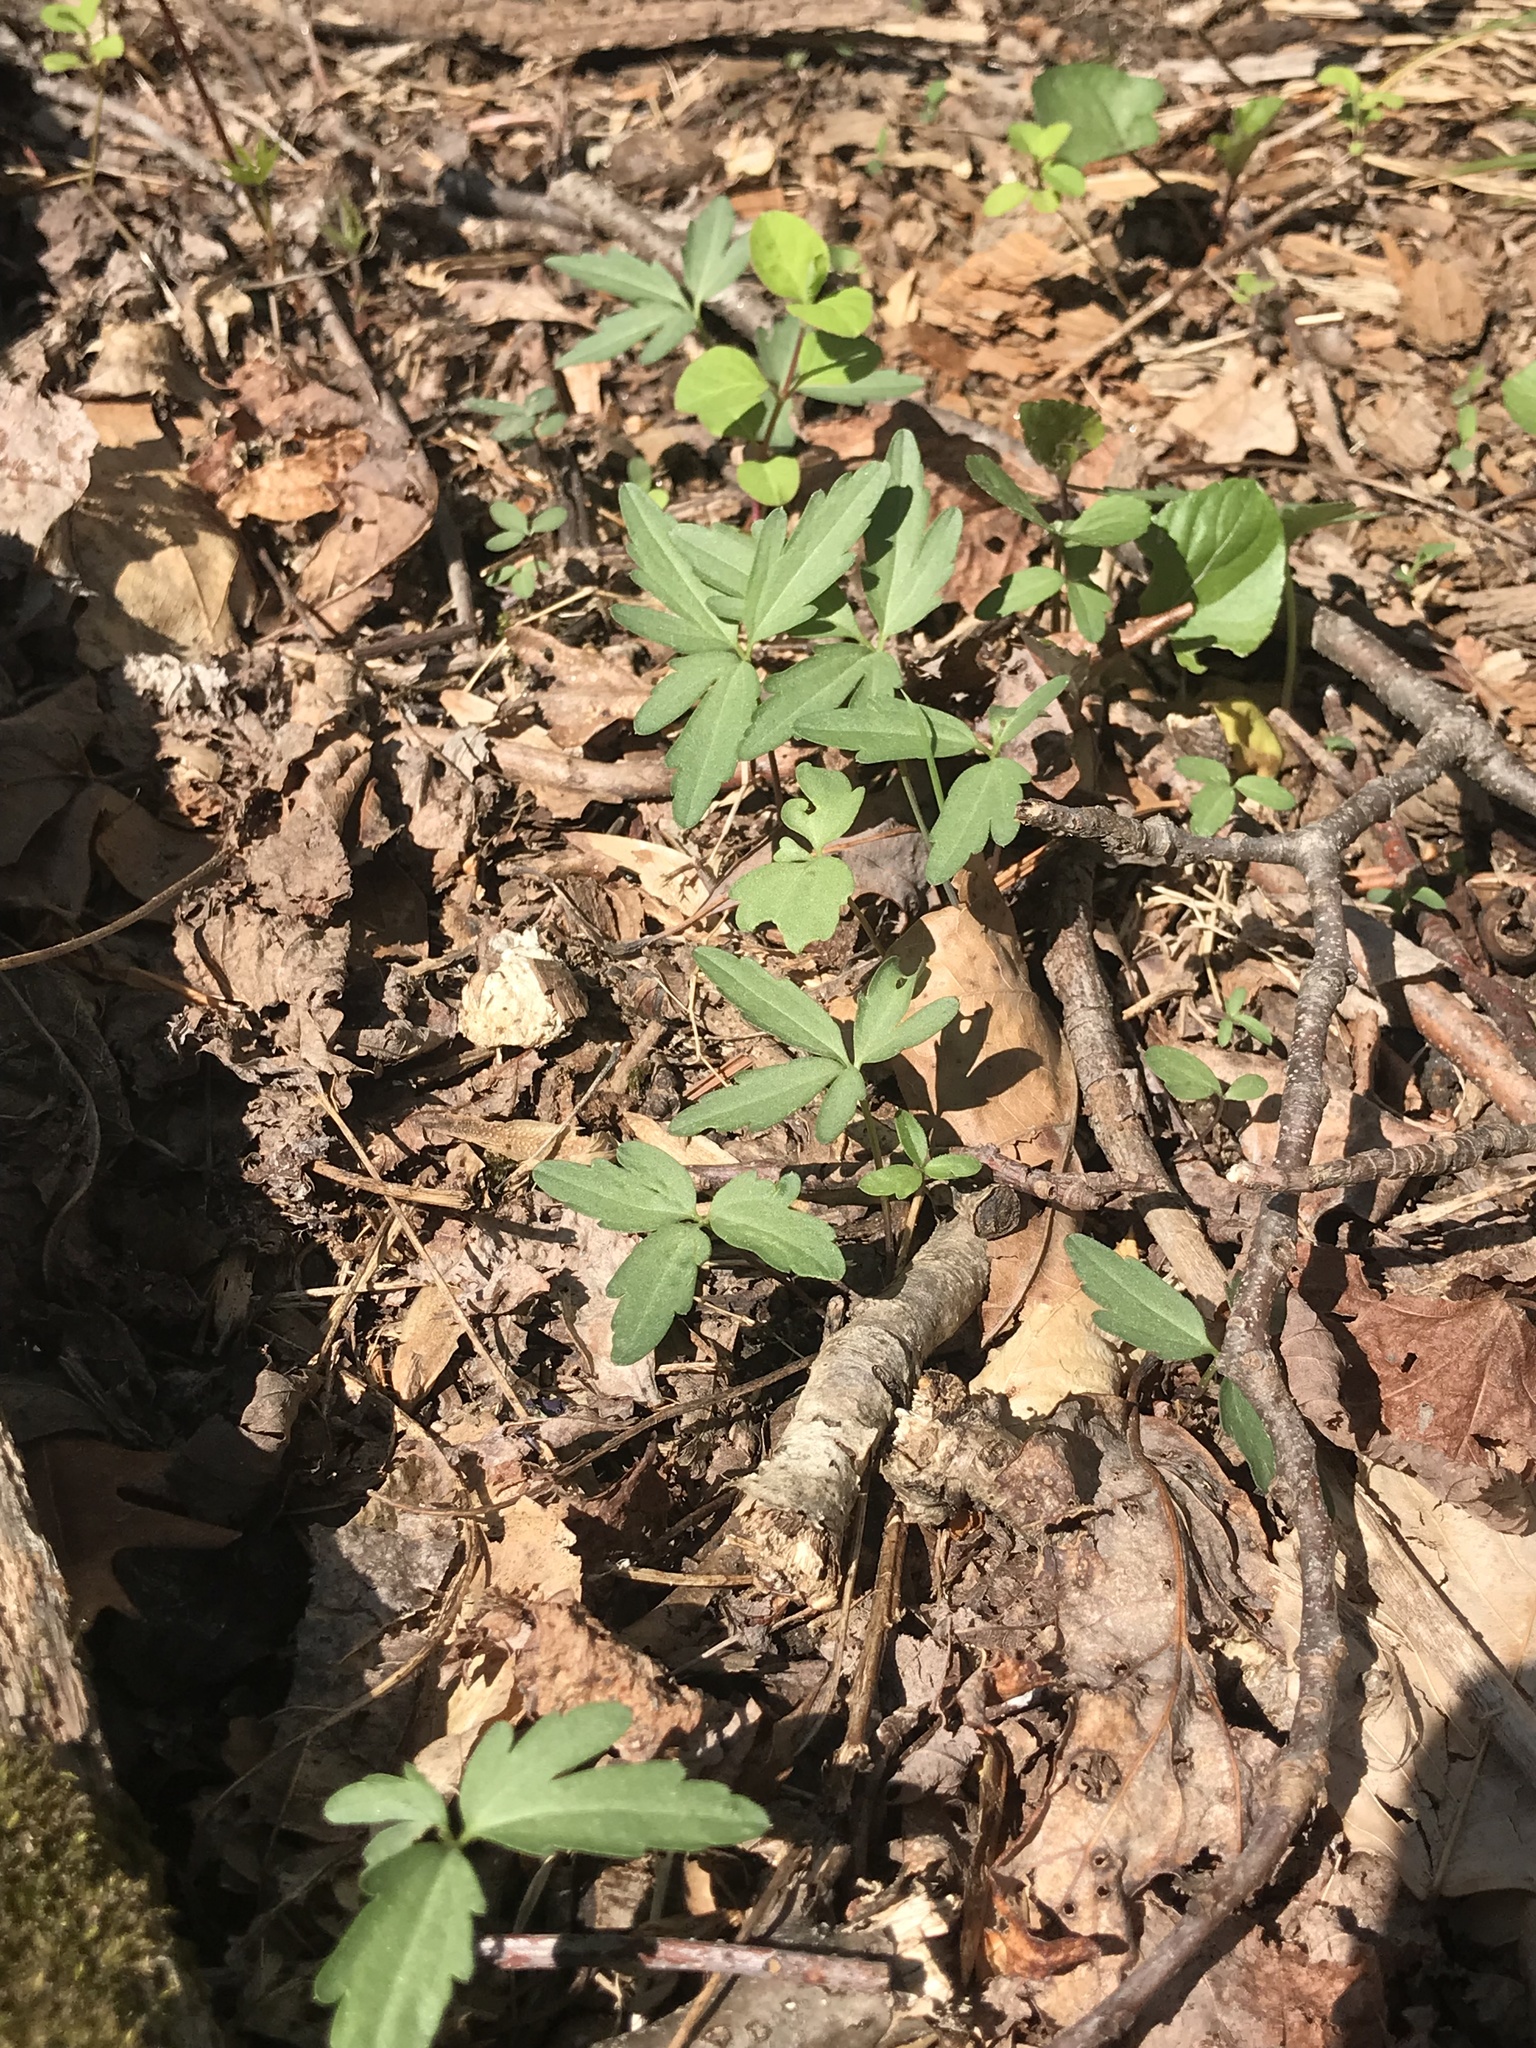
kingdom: Plantae
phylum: Tracheophyta
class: Magnoliopsida
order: Brassicales
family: Brassicaceae
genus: Cardamine
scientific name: Cardamine concatenata
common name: Cut-leaf toothcup
